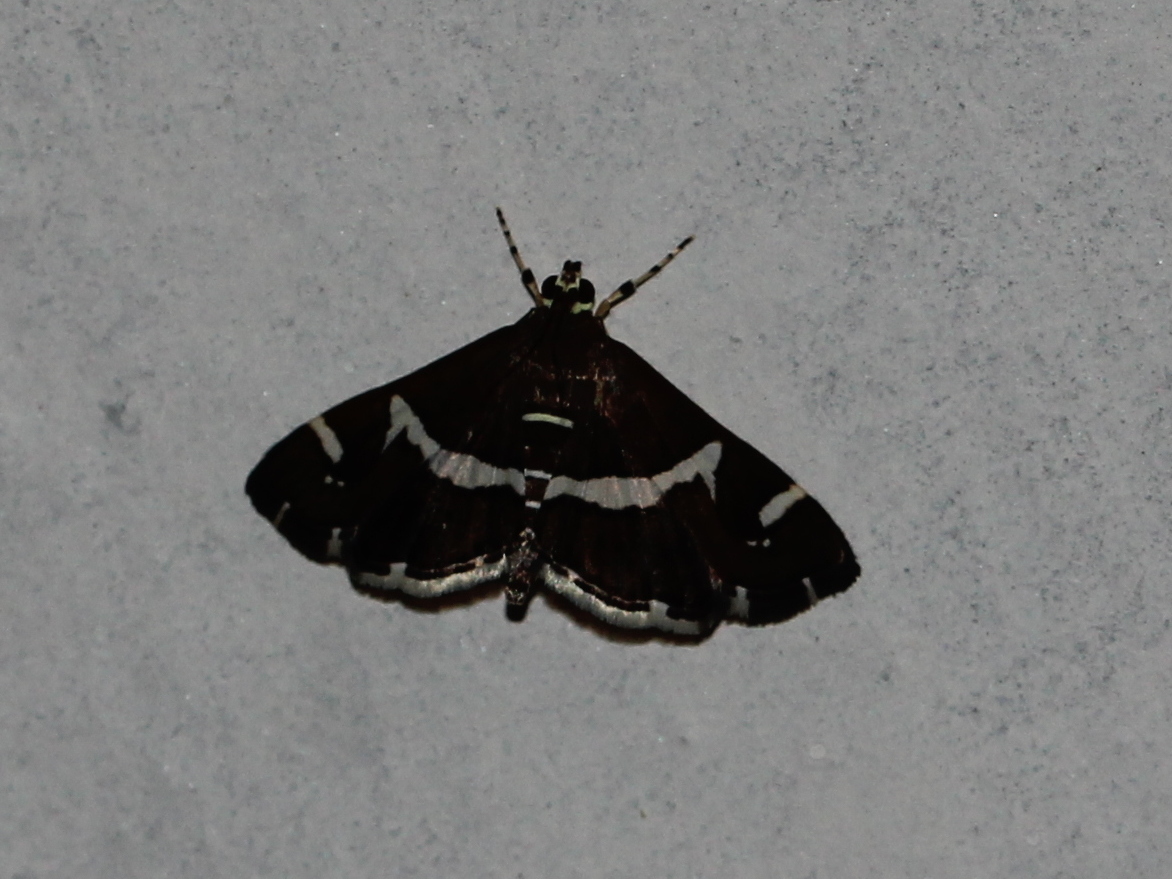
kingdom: Animalia
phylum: Arthropoda
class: Insecta
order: Lepidoptera
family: Crambidae
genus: Spoladea
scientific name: Spoladea recurvalis
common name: Beet webworm moth
